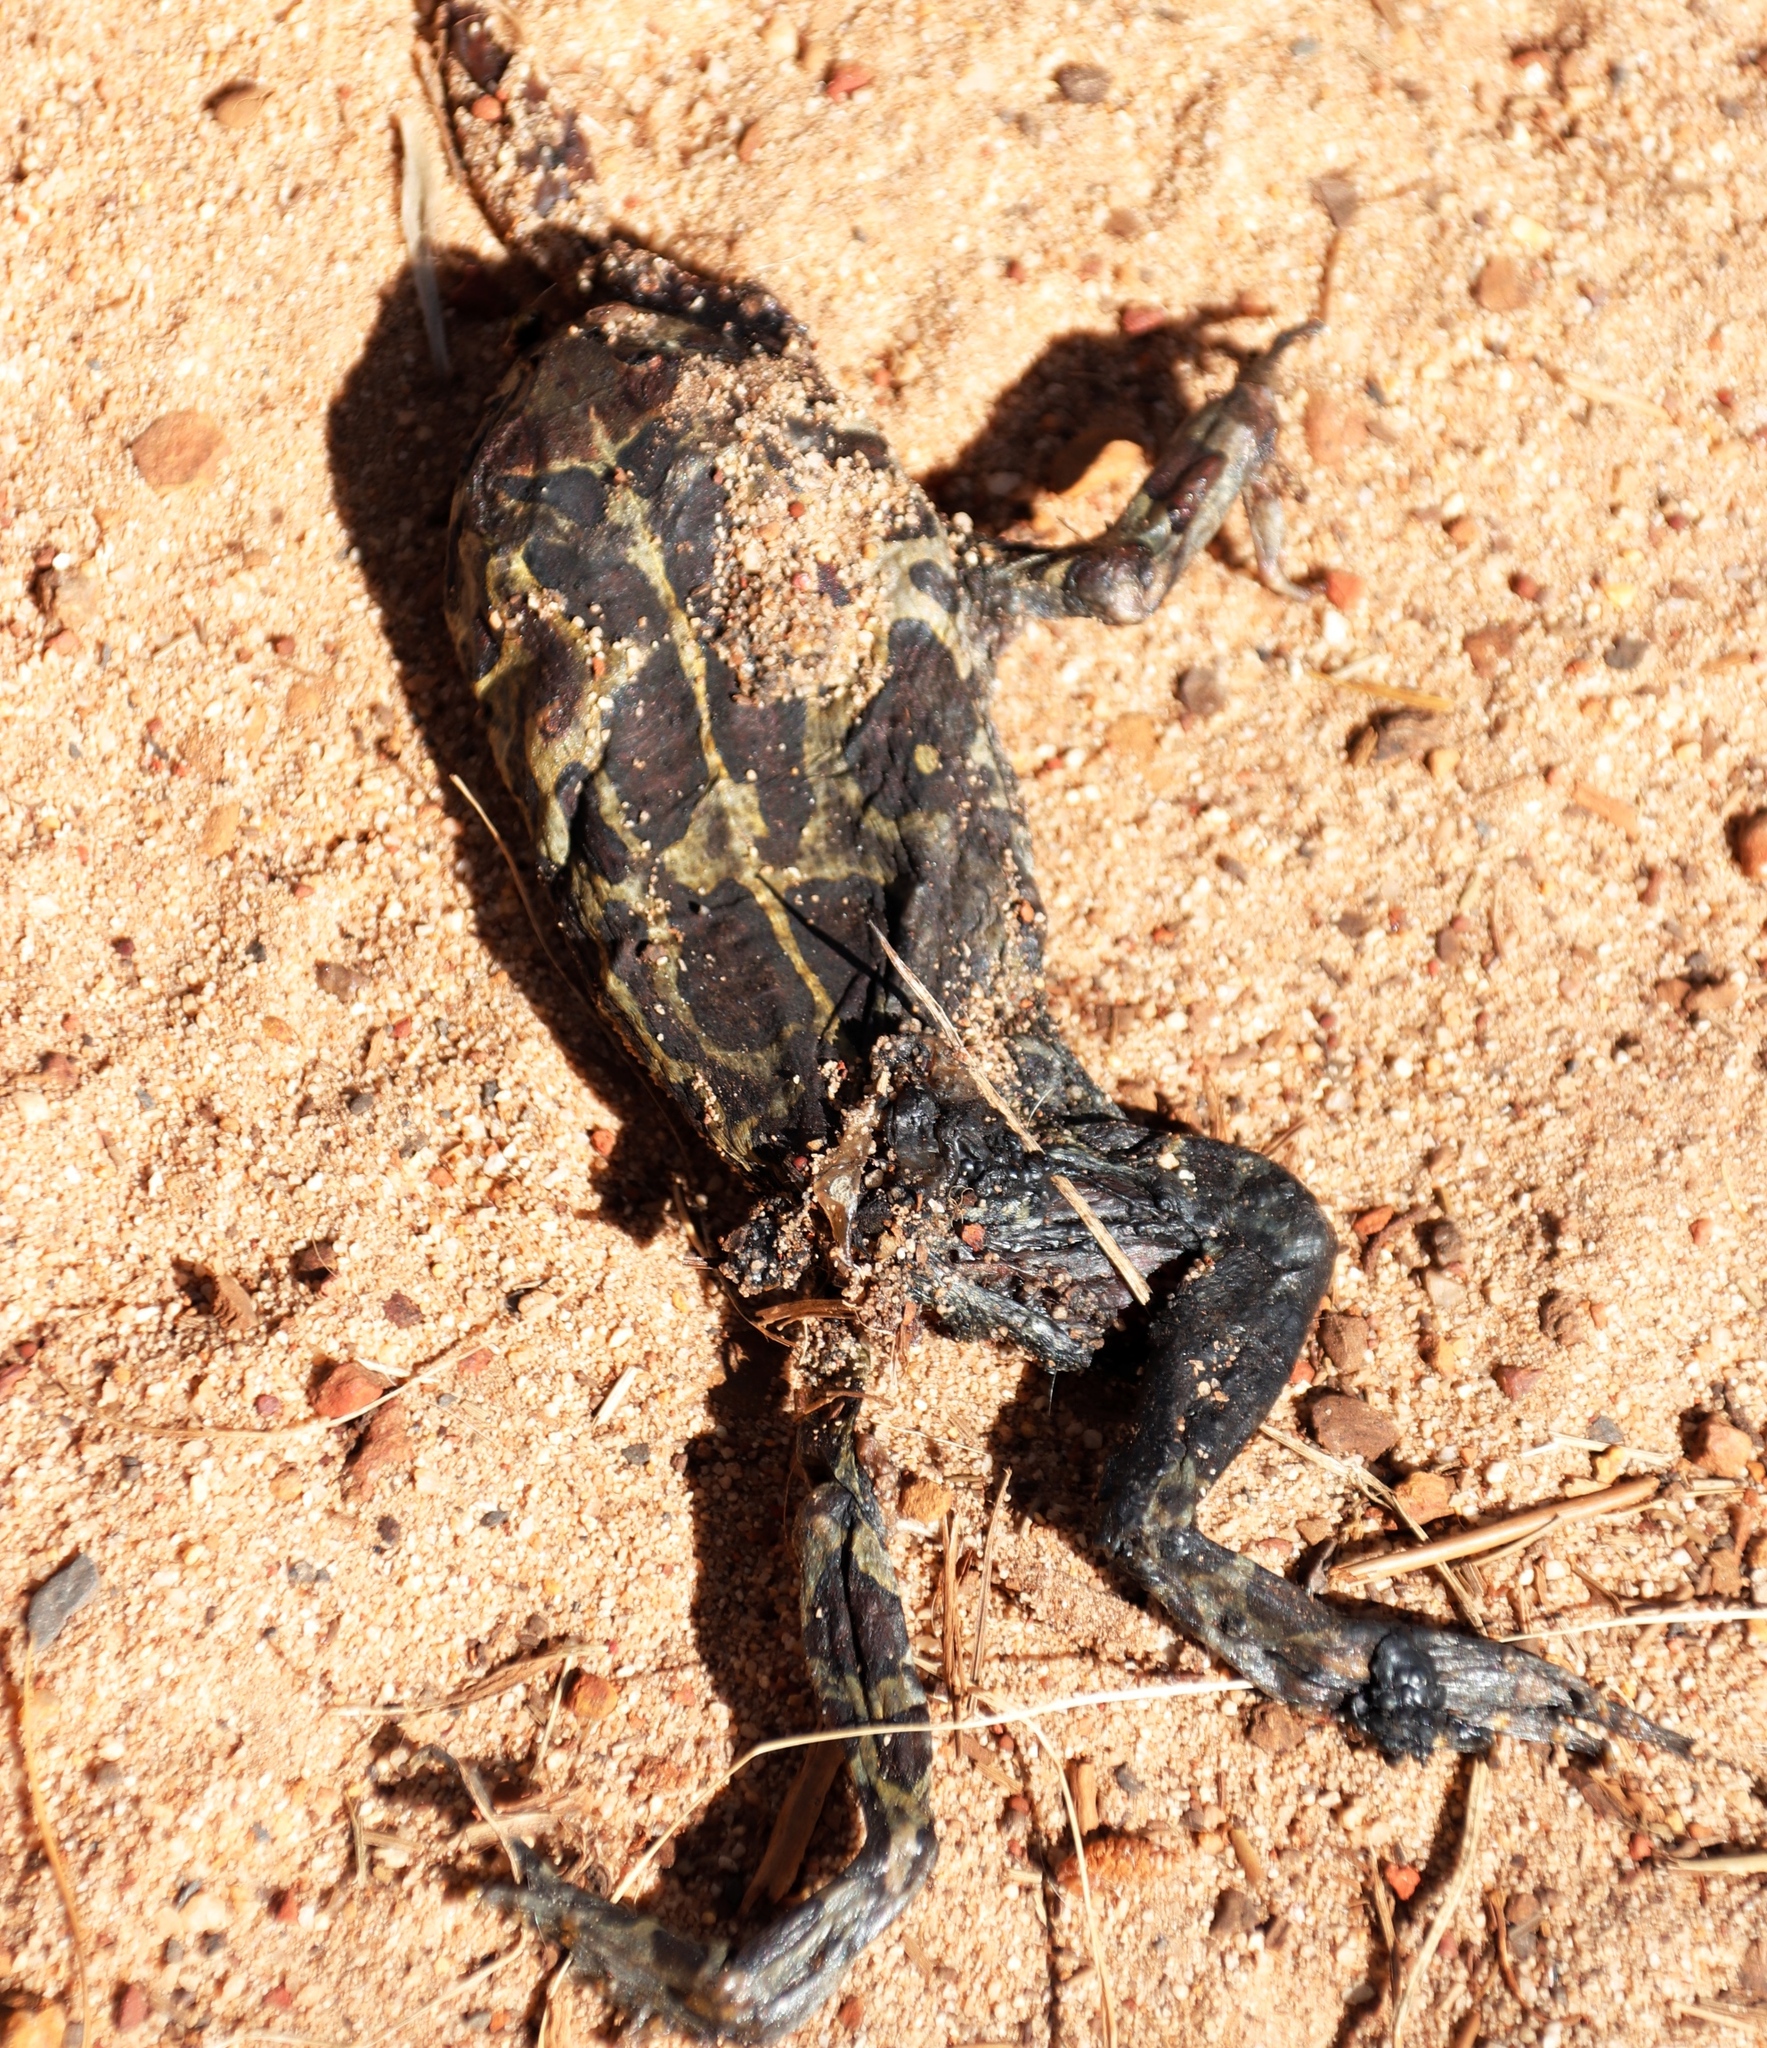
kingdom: Animalia
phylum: Chordata
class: Amphibia
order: Anura
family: Bufonidae
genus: Sclerophrys
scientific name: Sclerophrys pantherina
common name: Panther toad
